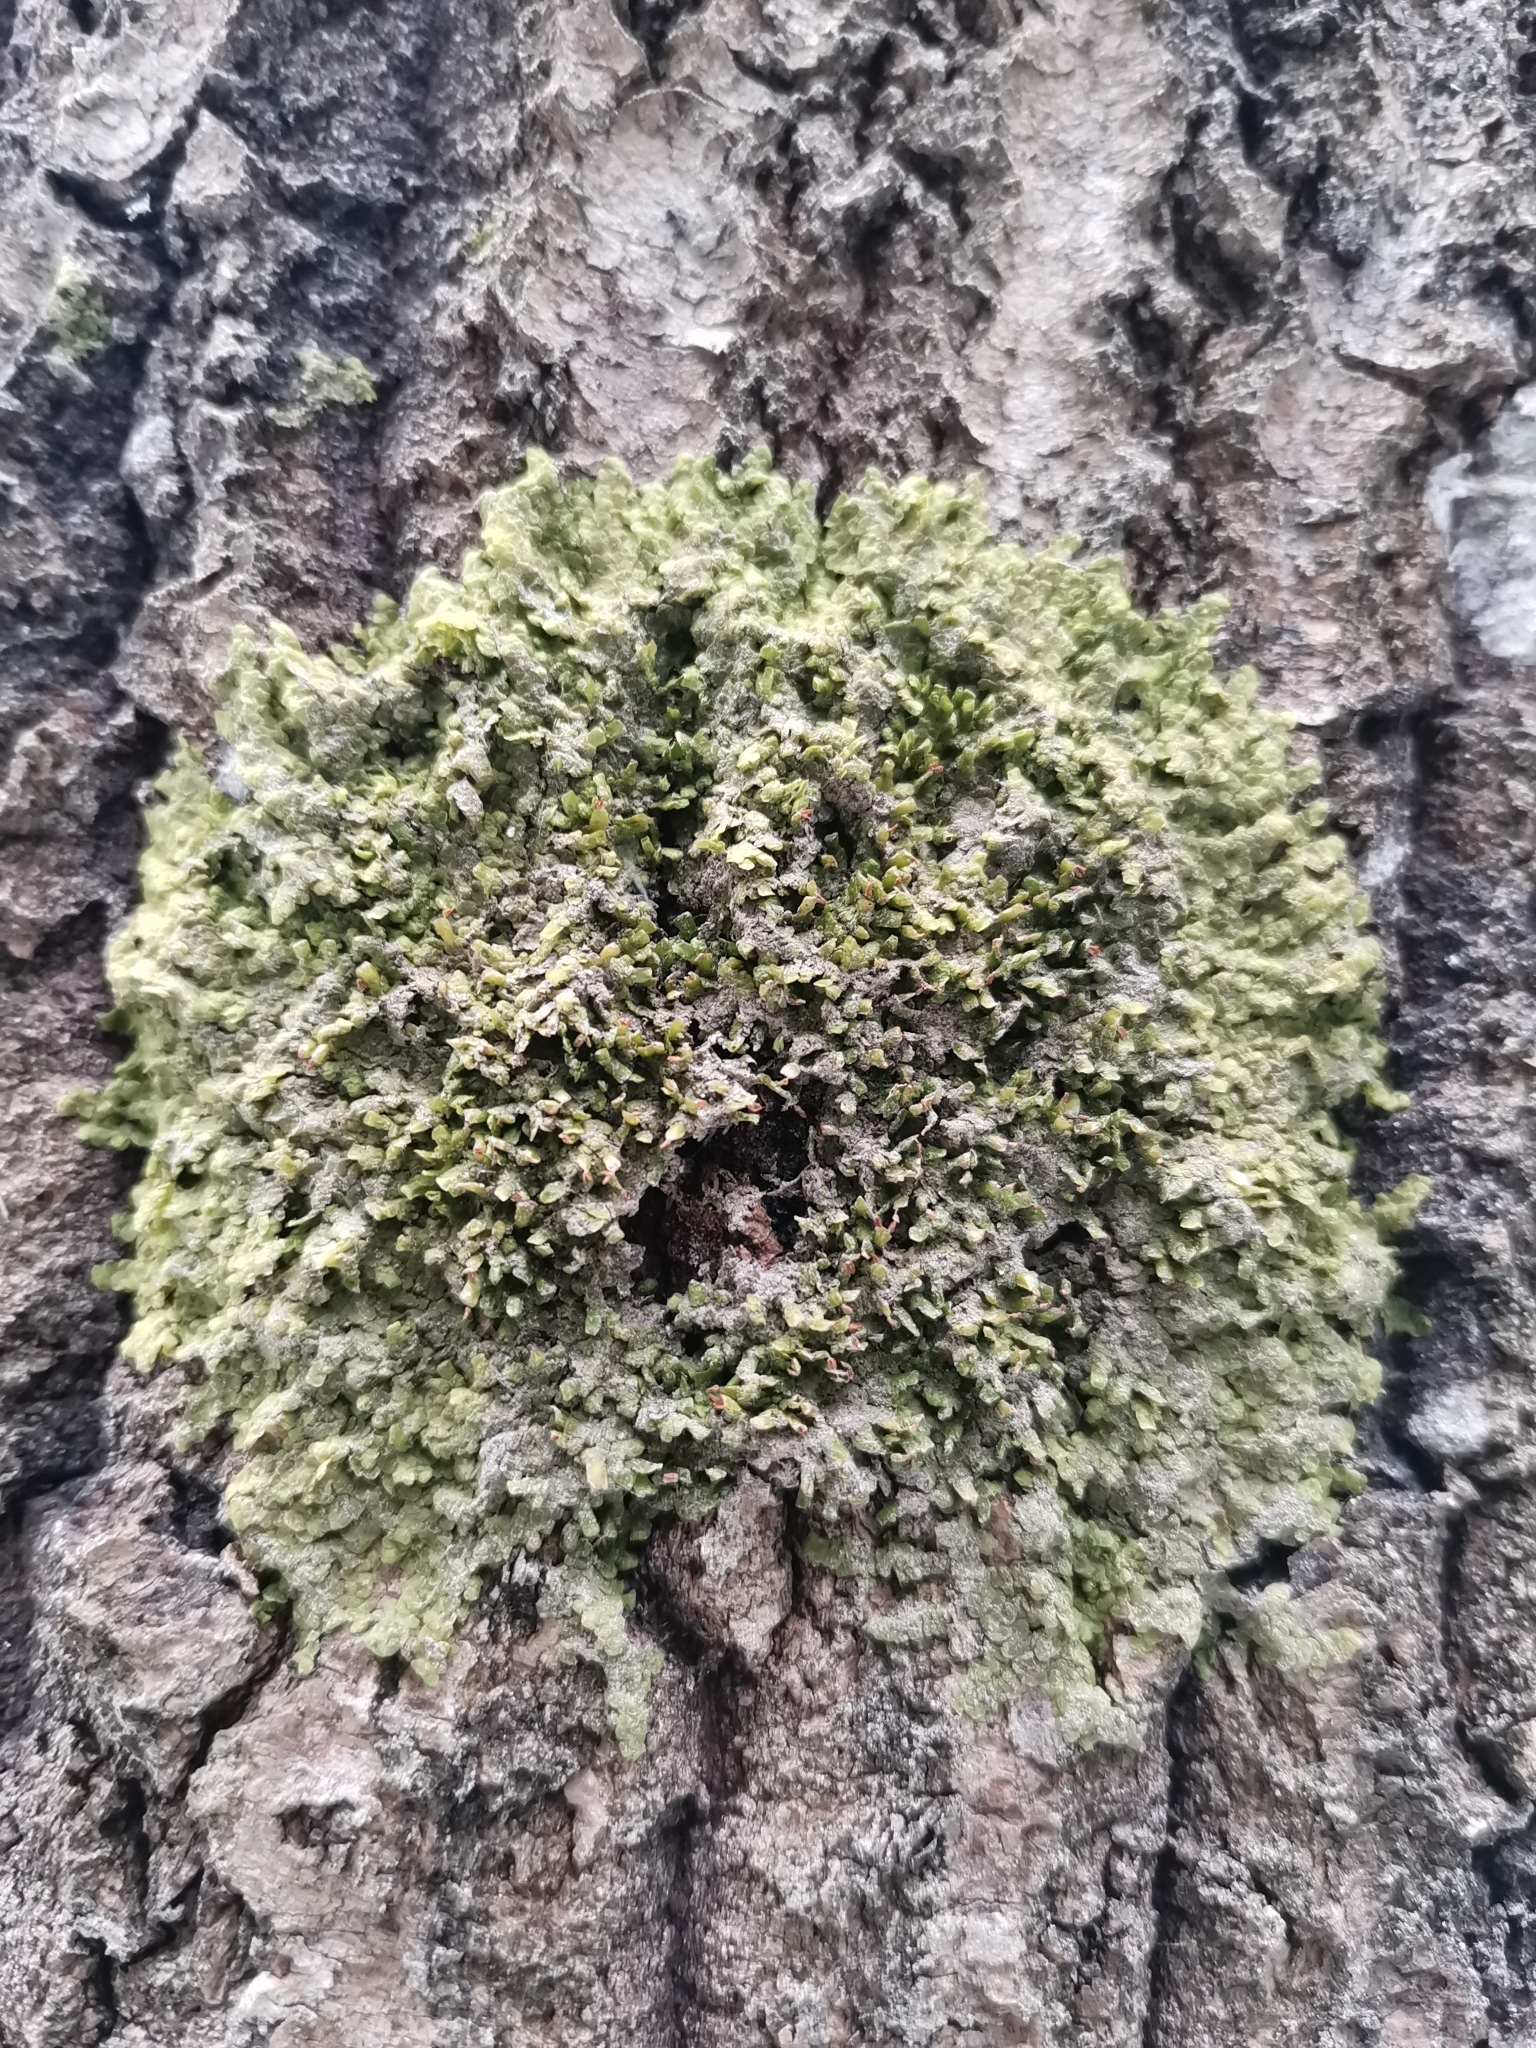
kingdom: Plantae
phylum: Marchantiophyta
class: Jungermanniopsida
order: Porellales
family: Radulaceae
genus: Radula
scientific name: Radula complanata
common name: Flat-leaved scalewort
